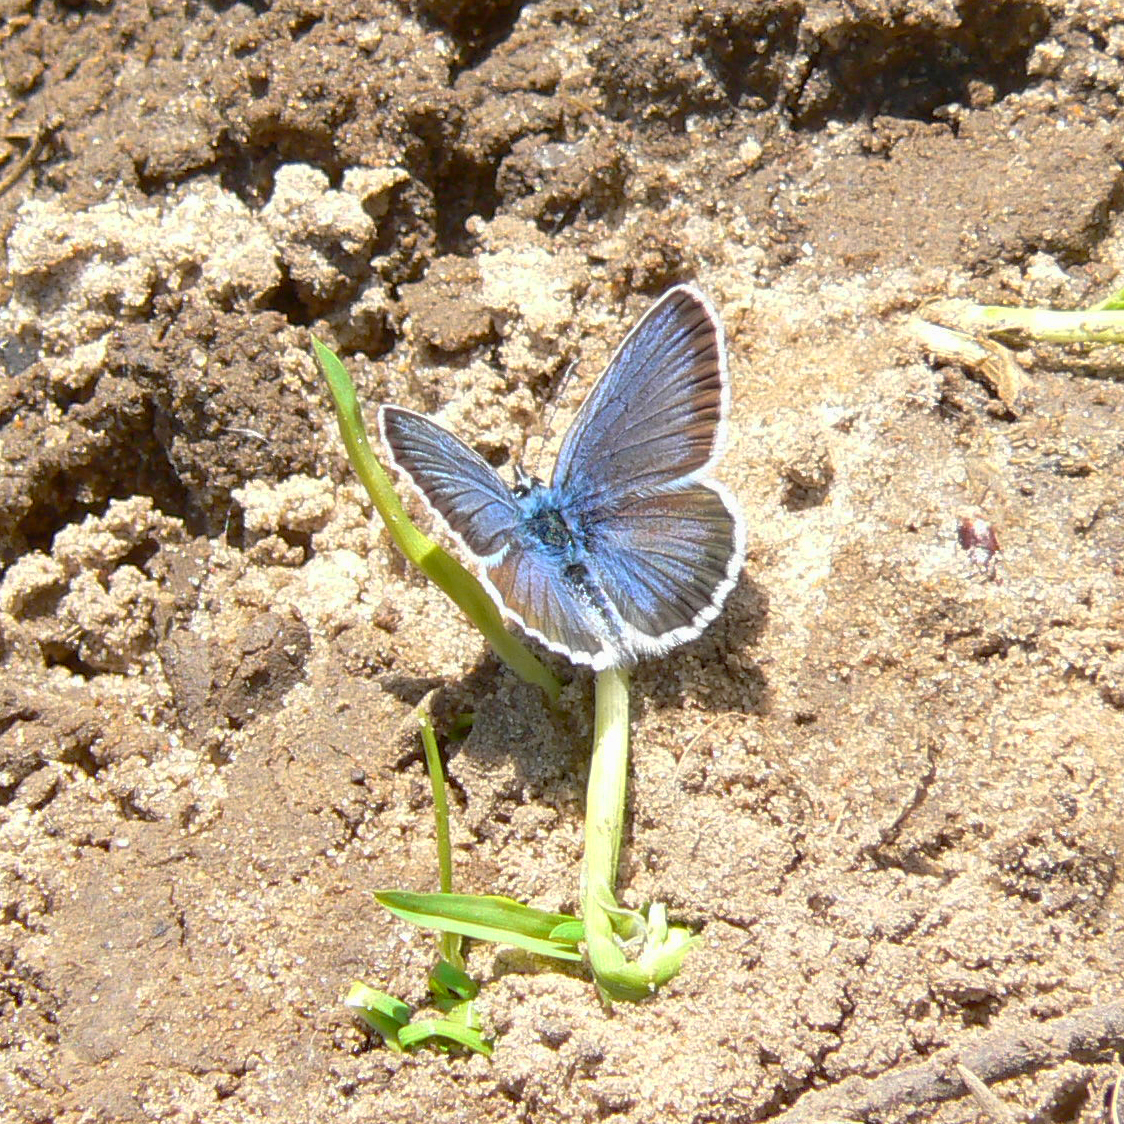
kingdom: Animalia
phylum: Arthropoda
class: Insecta
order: Lepidoptera
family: Lycaenidae
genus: Plebejus
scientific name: Plebejus argus
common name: Silver-studded blue
